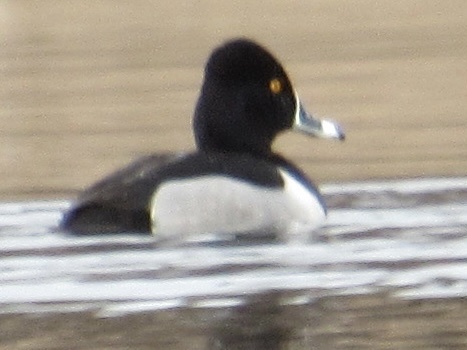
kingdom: Animalia
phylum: Chordata
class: Aves
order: Anseriformes
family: Anatidae
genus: Aythya
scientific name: Aythya collaris
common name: Ring-necked duck
